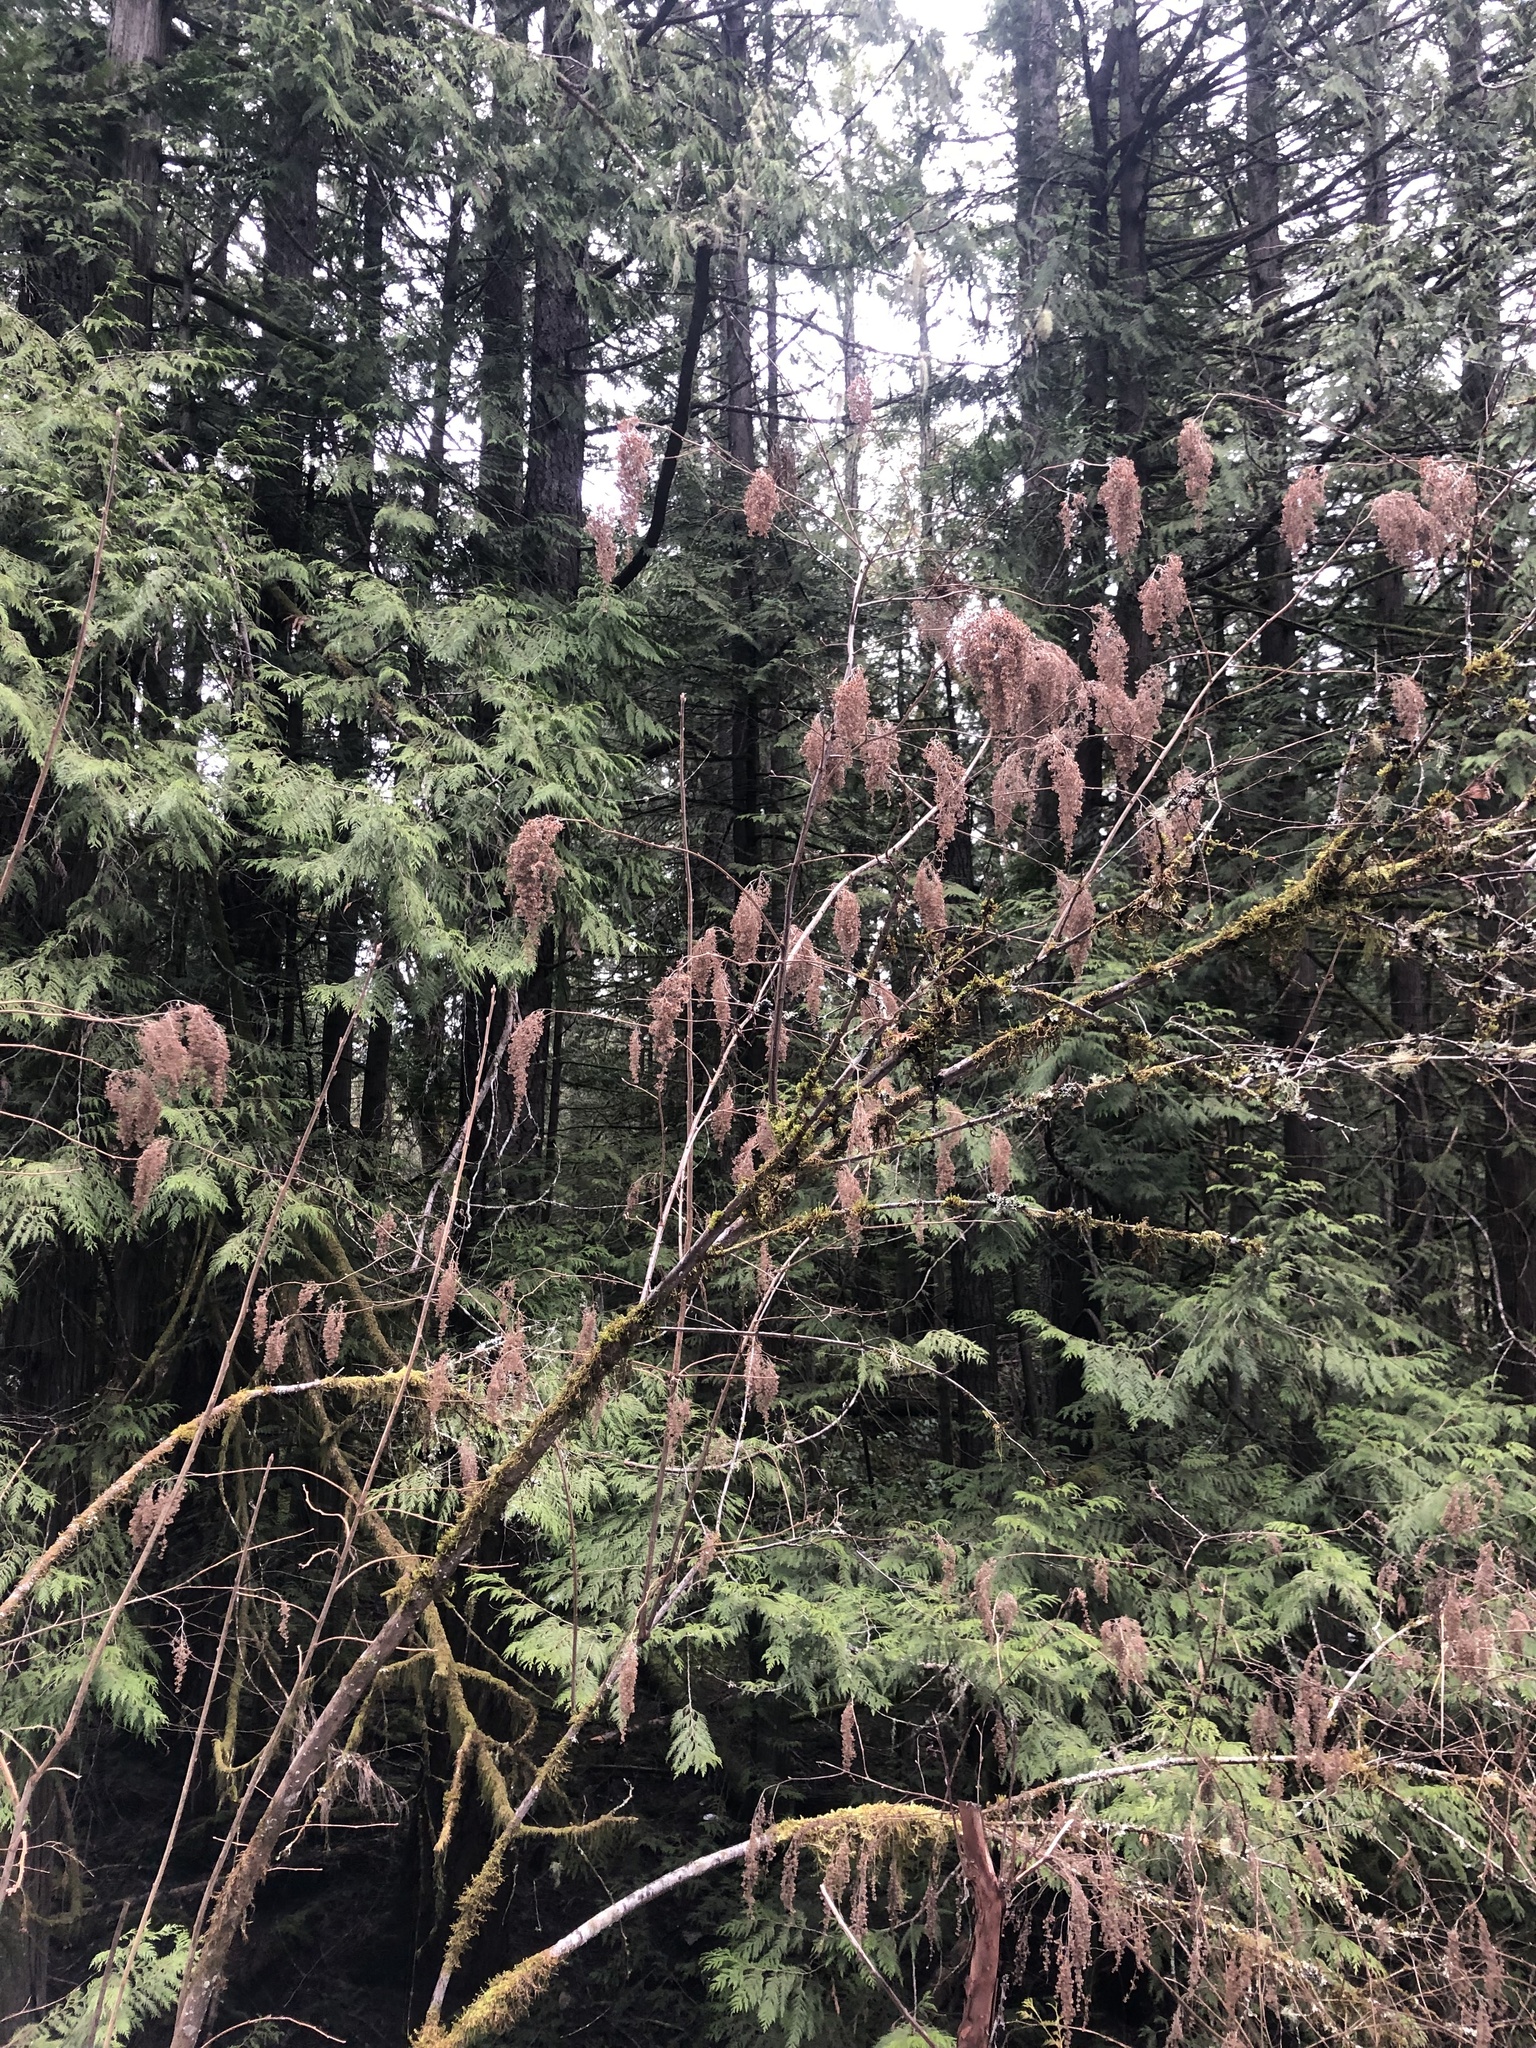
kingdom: Plantae
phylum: Tracheophyta
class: Magnoliopsida
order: Rosales
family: Rosaceae
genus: Holodiscus
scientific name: Holodiscus discolor
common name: Oceanspray
